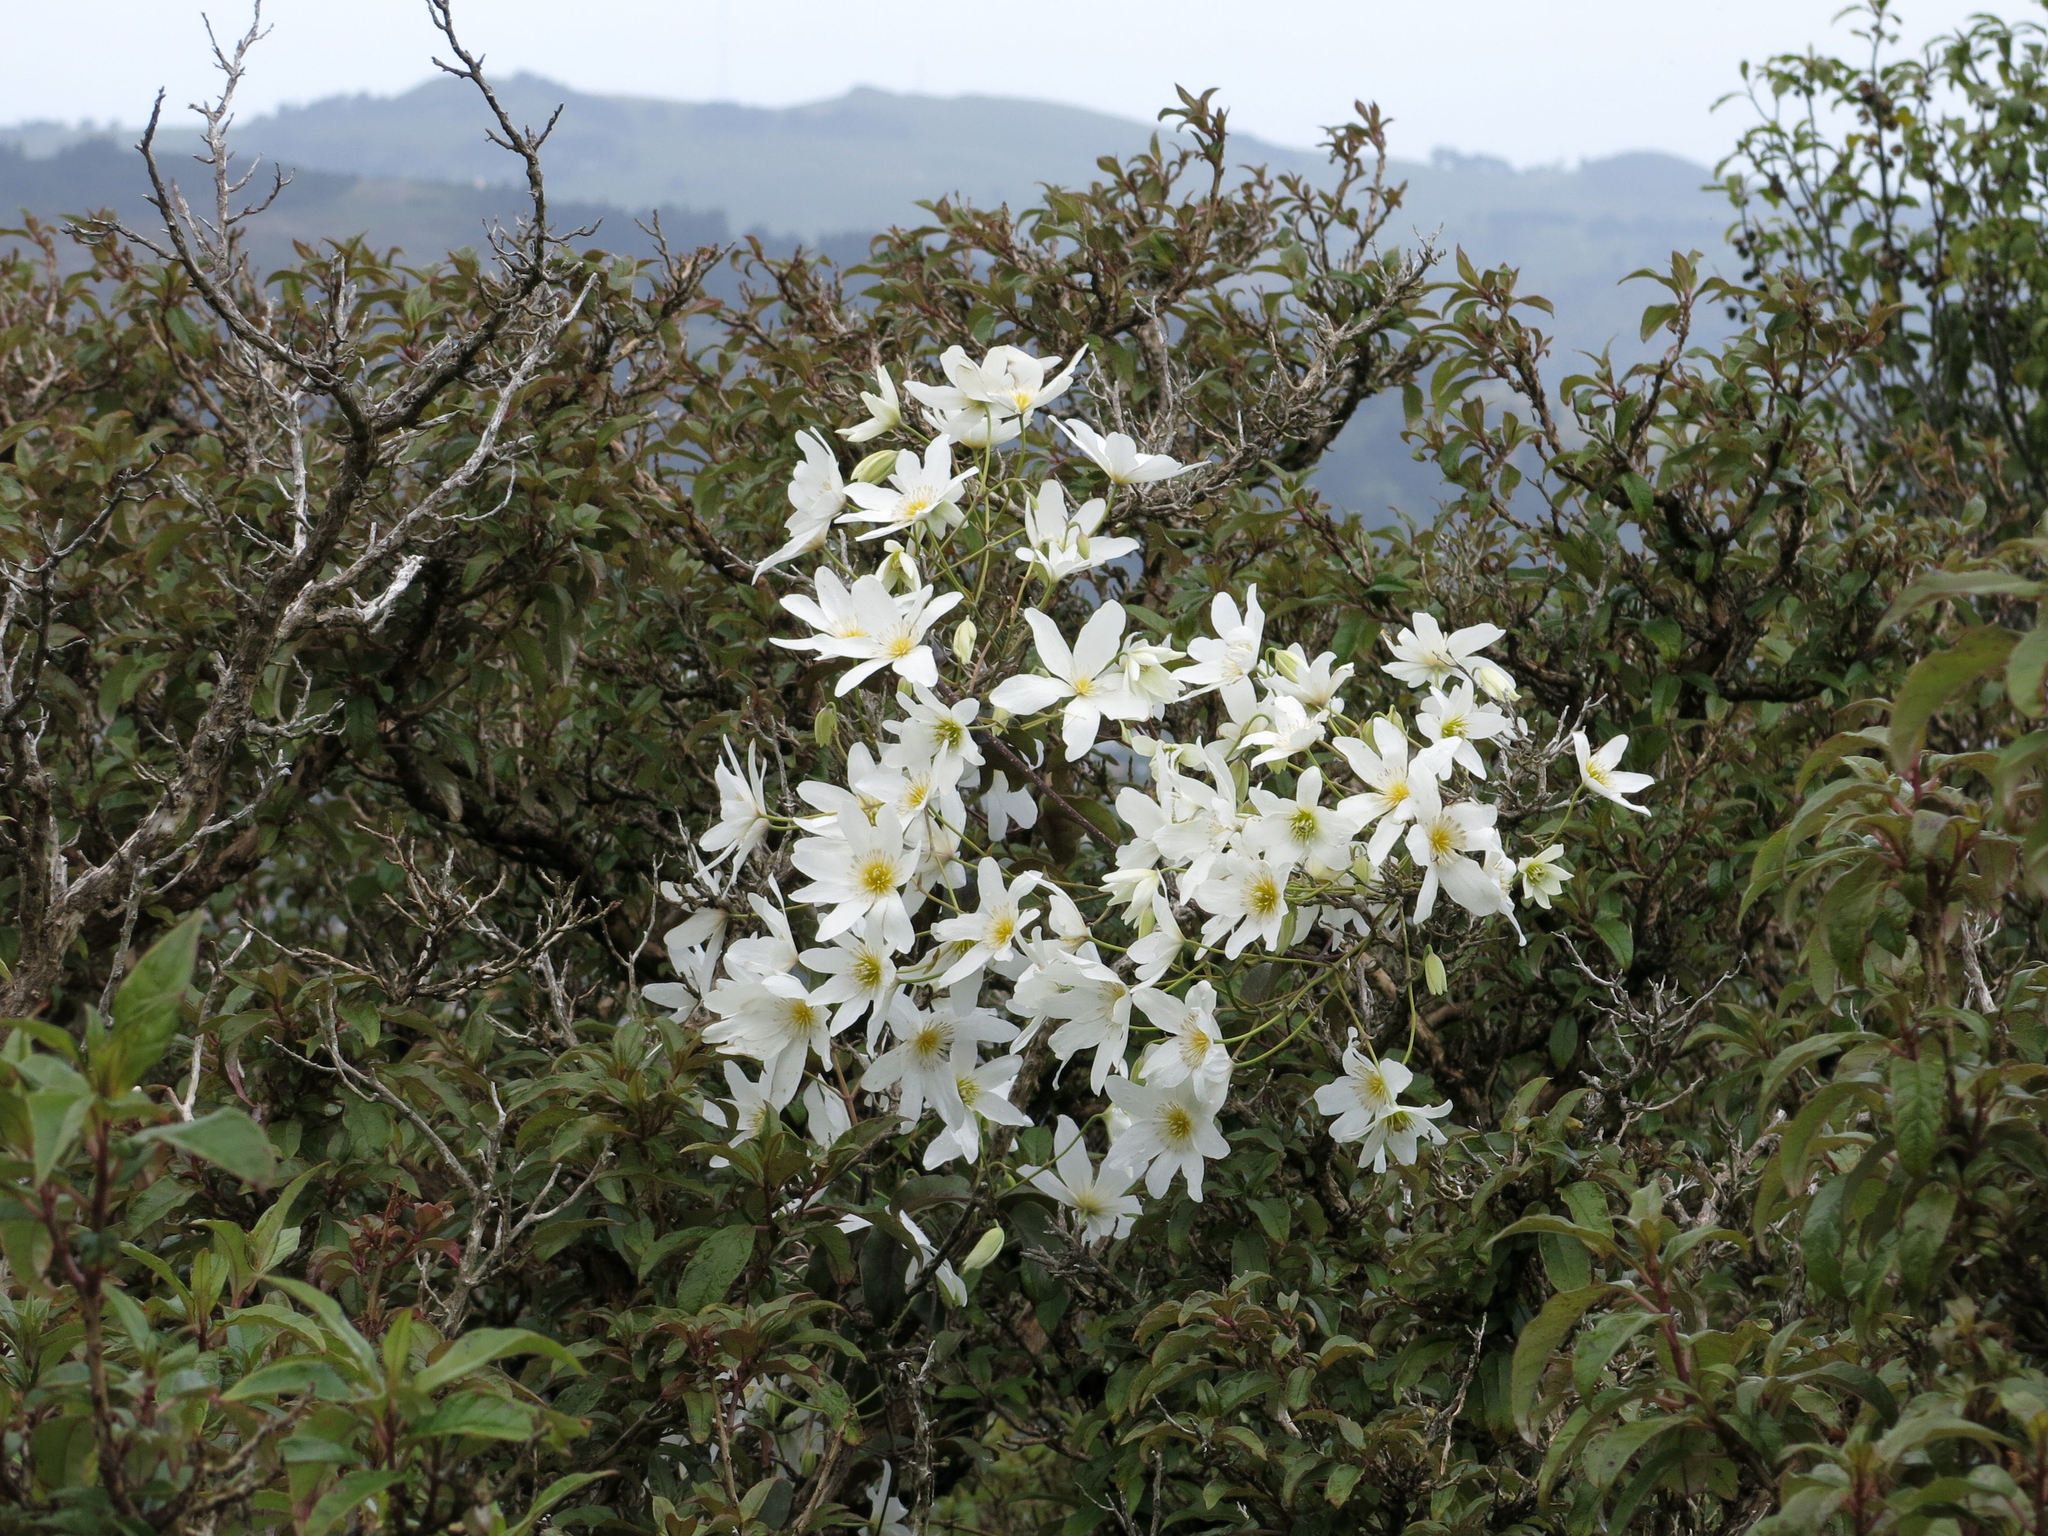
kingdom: Plantae
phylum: Tracheophyta
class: Magnoliopsida
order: Ranunculales
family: Ranunculaceae
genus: Clematis
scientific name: Clematis paniculata
